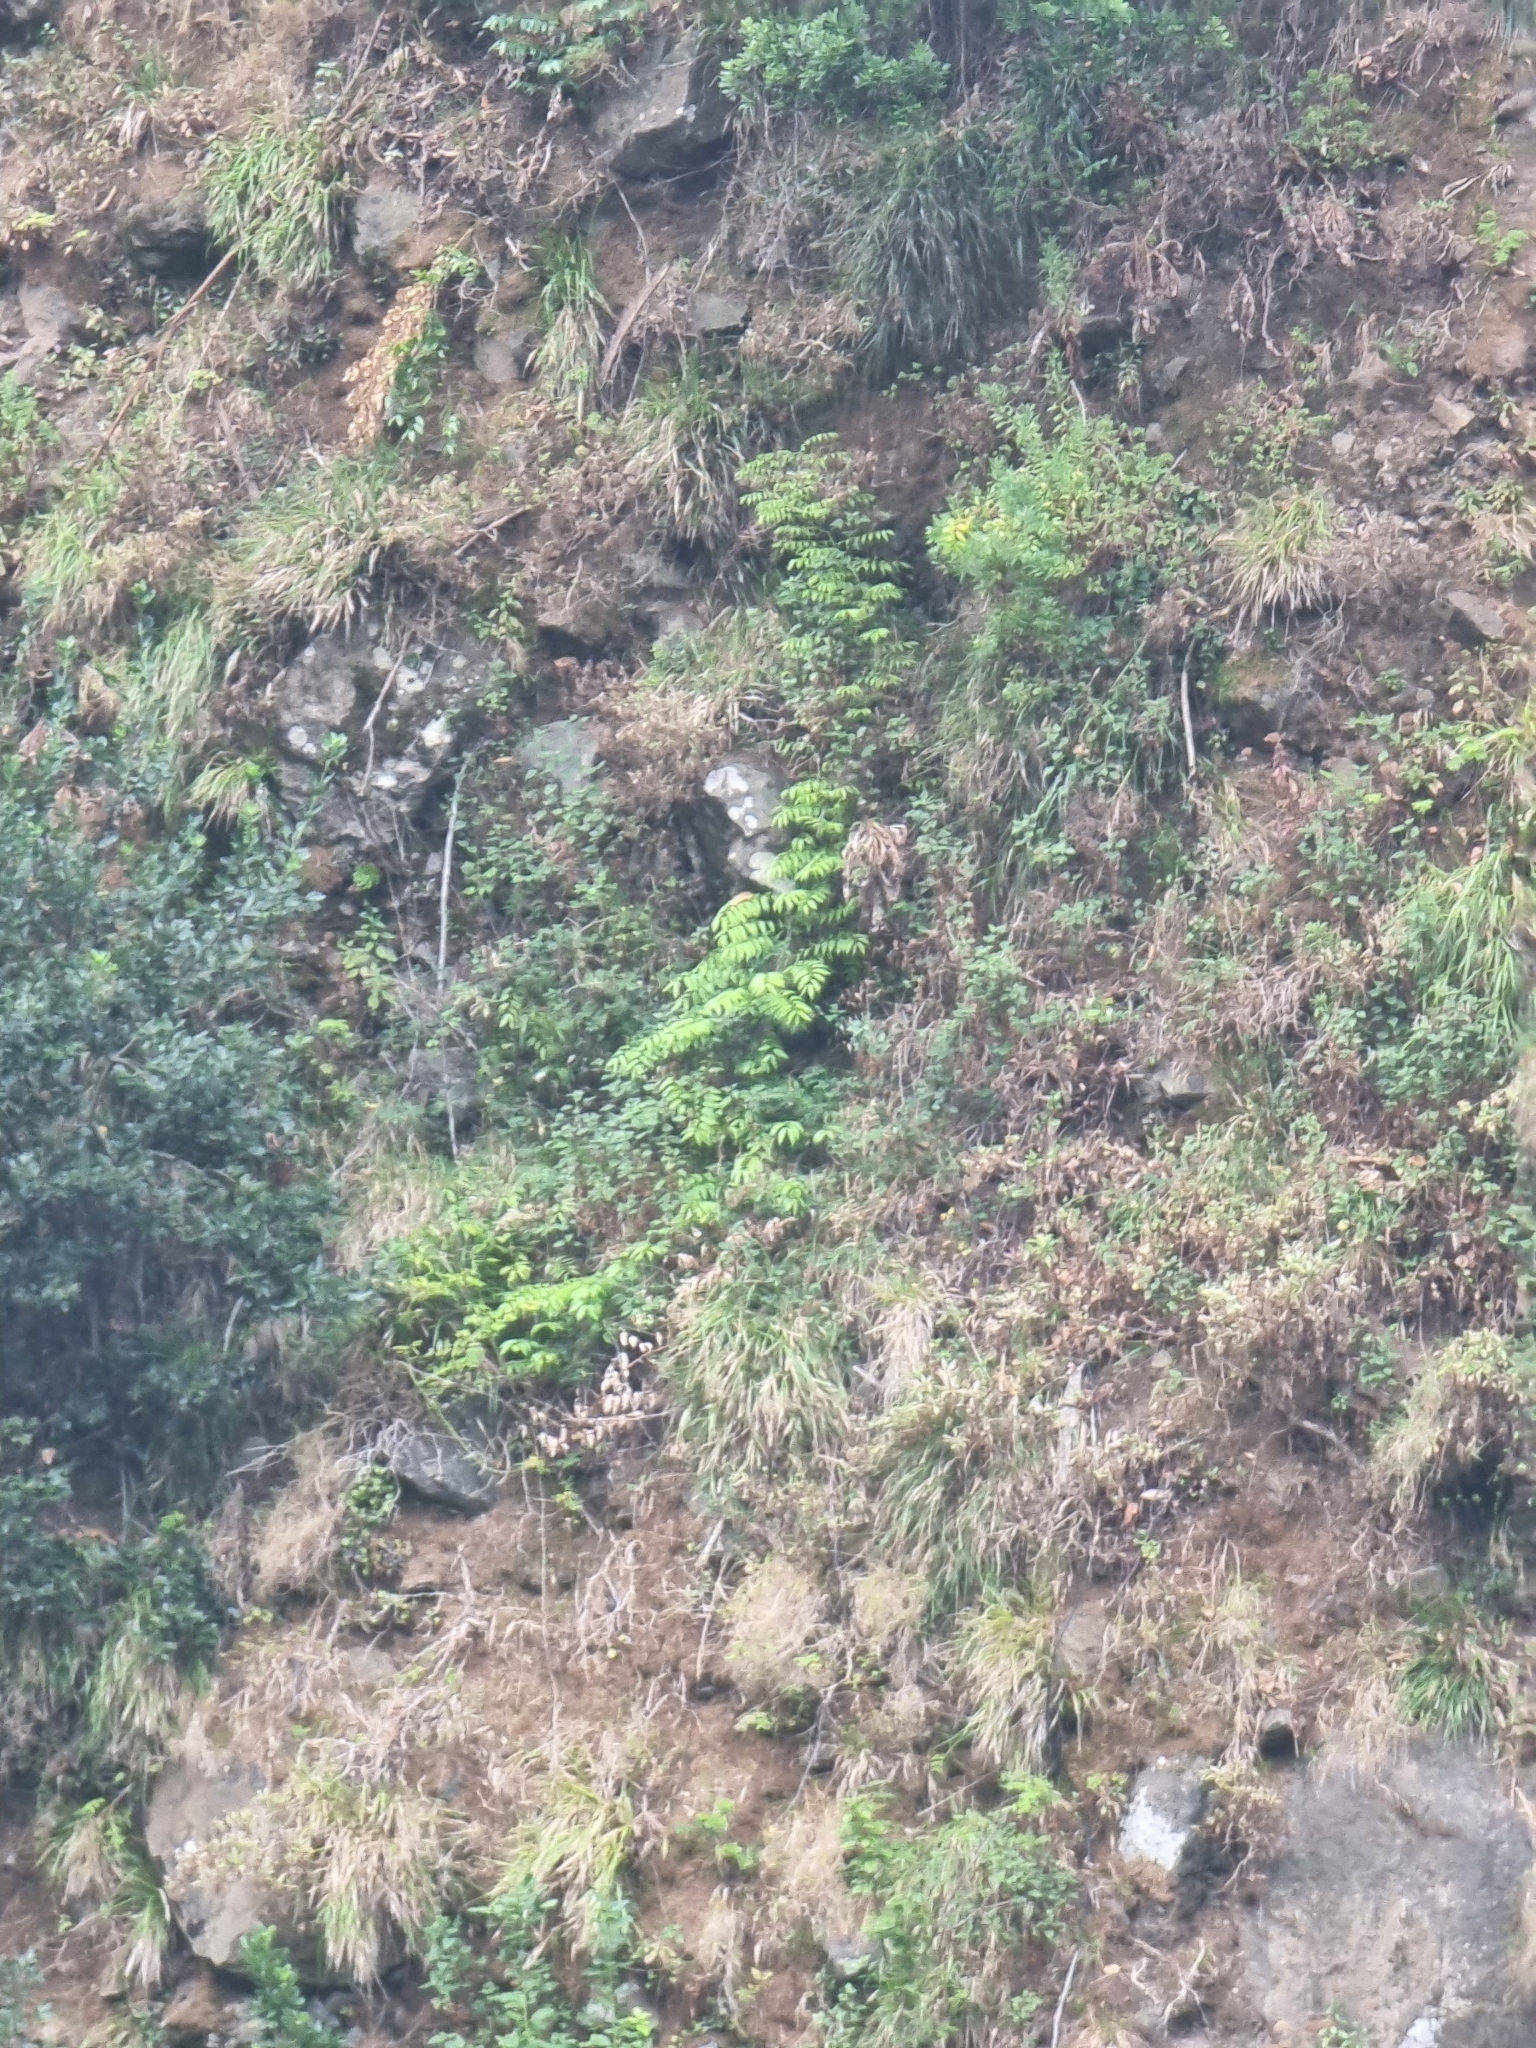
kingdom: Plantae
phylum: Tracheophyta
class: Liliopsida
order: Asparagales
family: Asparagaceae
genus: Semele
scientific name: Semele androgyna
